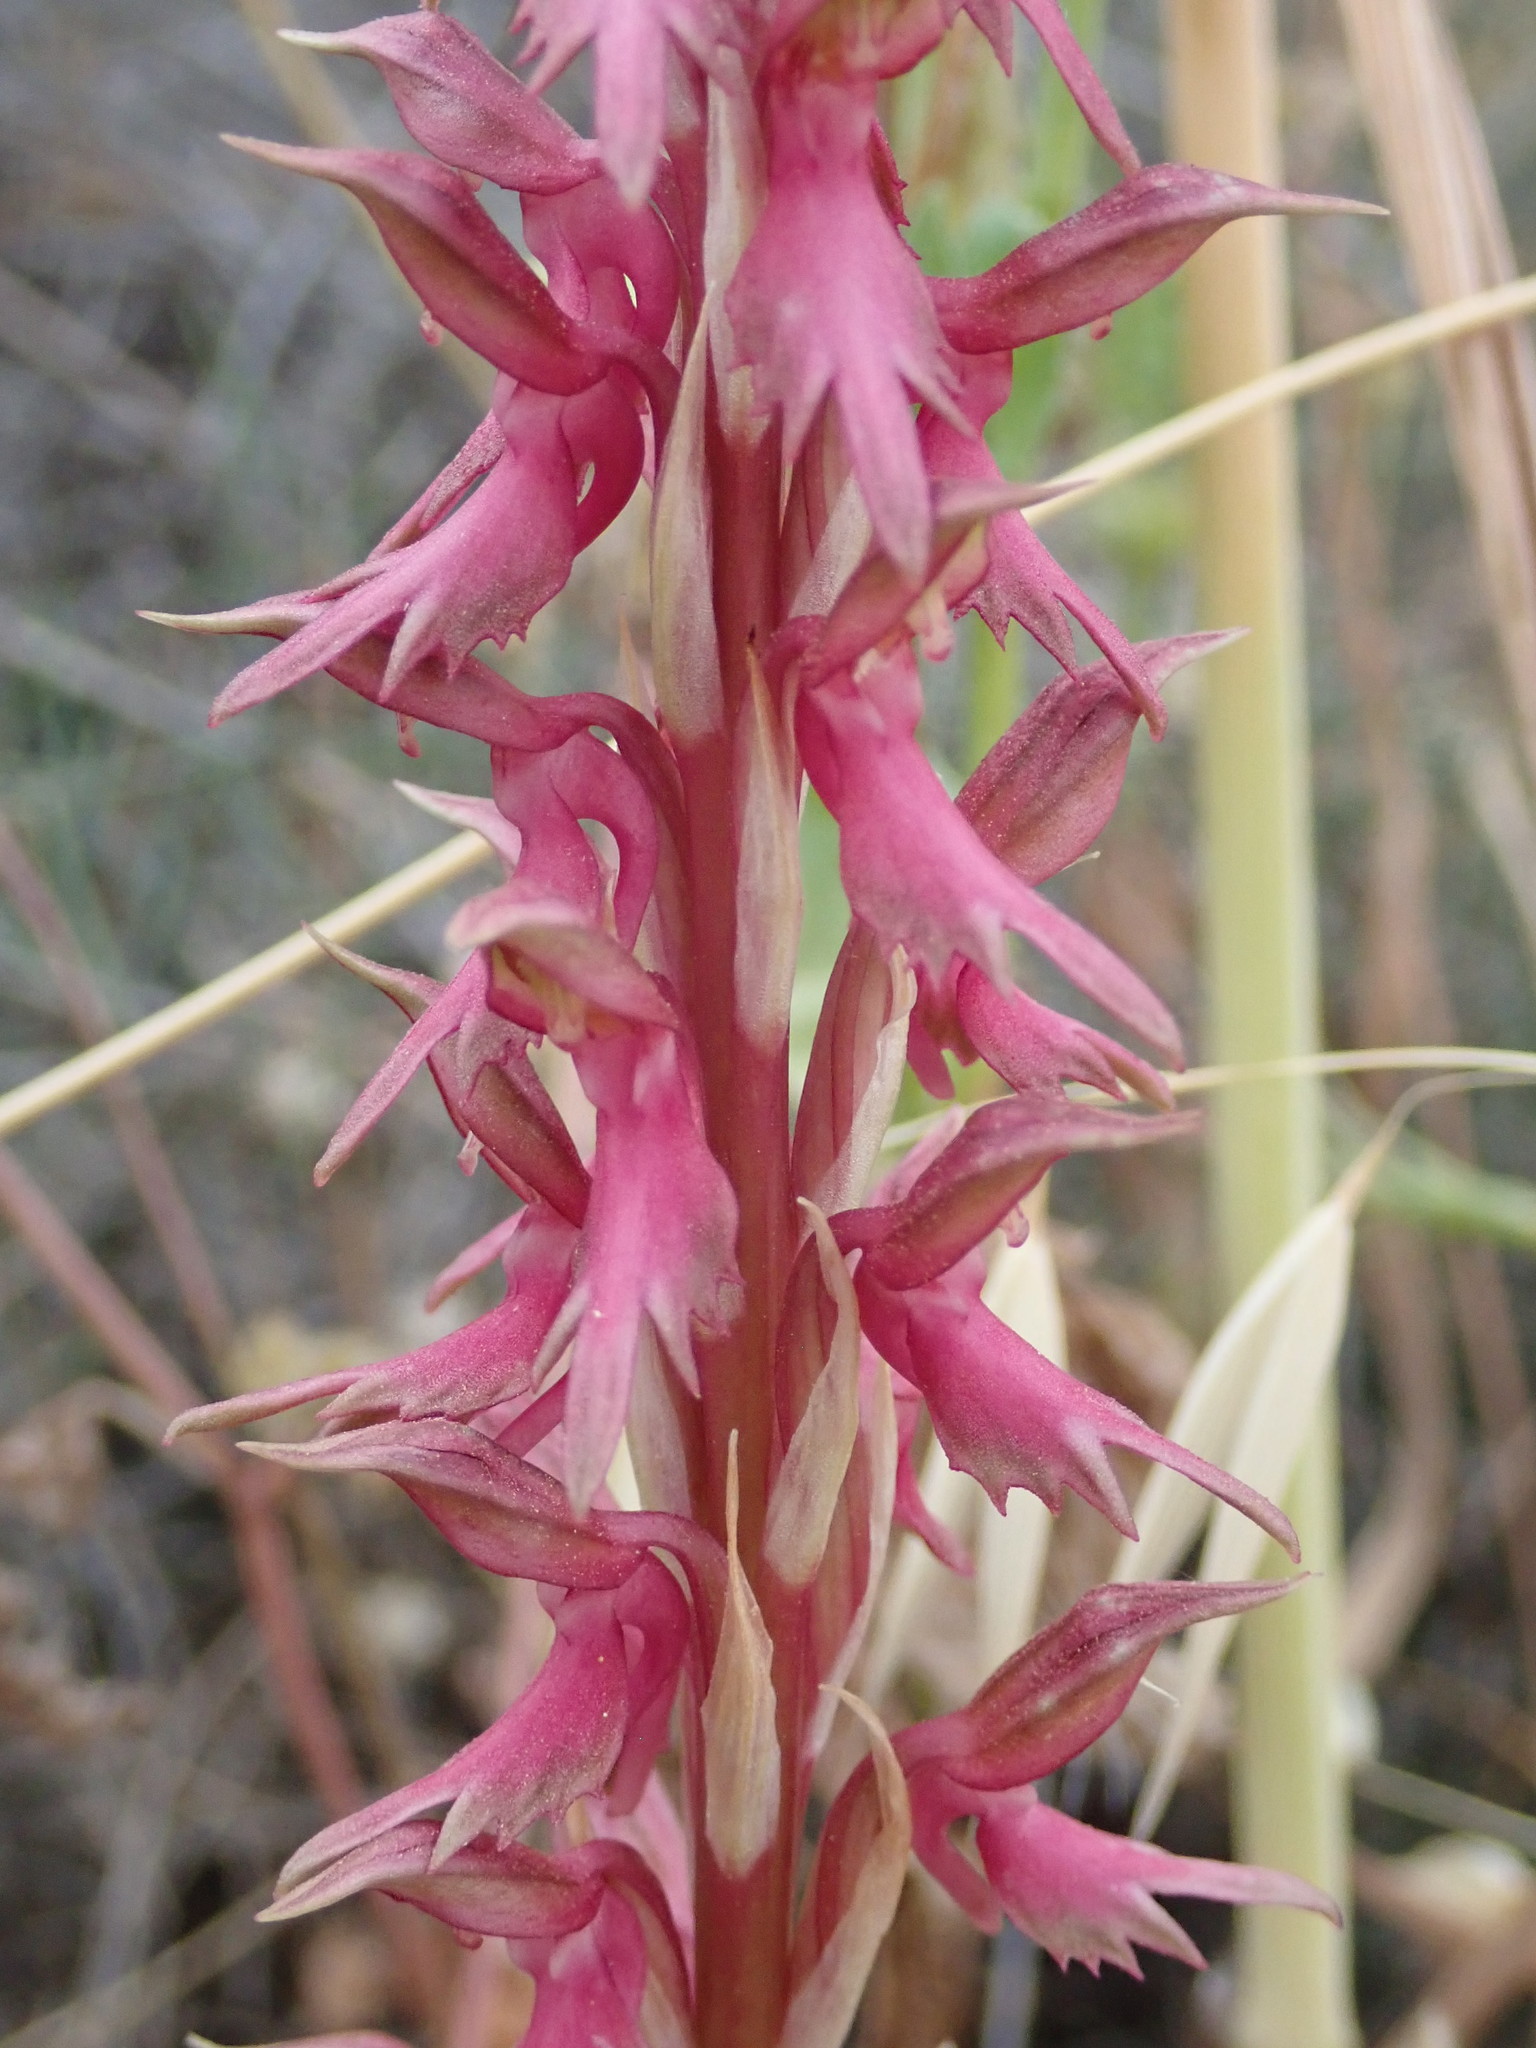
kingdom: Plantae
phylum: Tracheophyta
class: Liliopsida
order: Asparagales
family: Orchidaceae
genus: Anacamptis
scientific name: Anacamptis sancta
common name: Holy orchid
